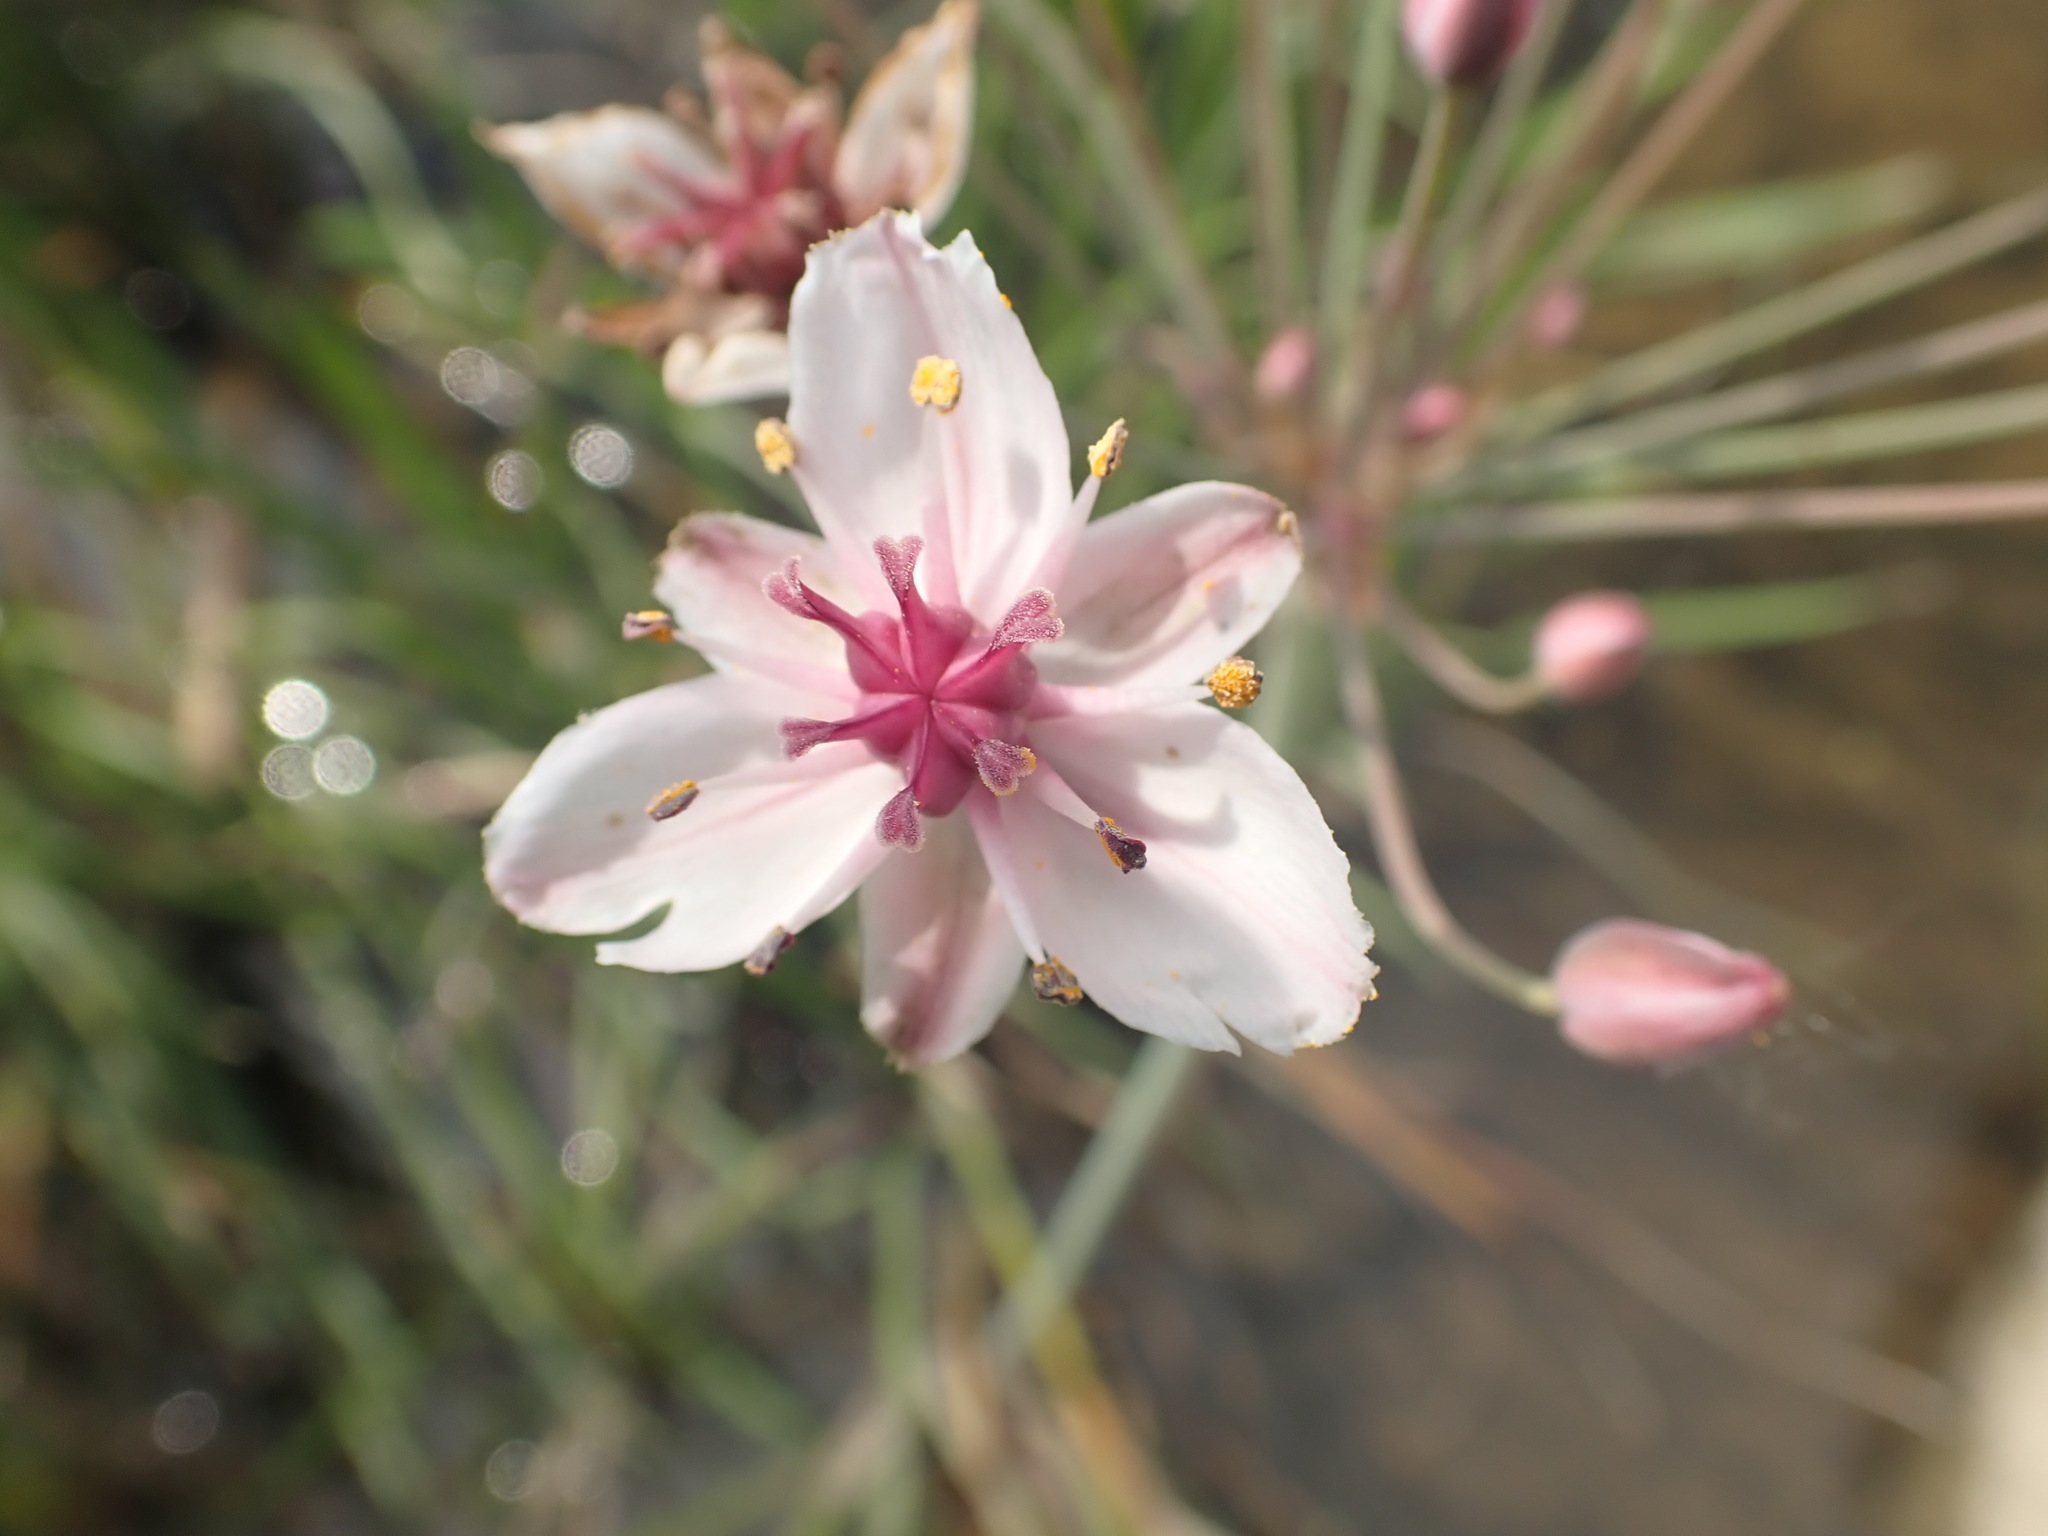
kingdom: Plantae
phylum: Tracheophyta
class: Liliopsida
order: Alismatales
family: Butomaceae
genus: Butomus
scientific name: Butomus umbellatus
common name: Flowering-rush
